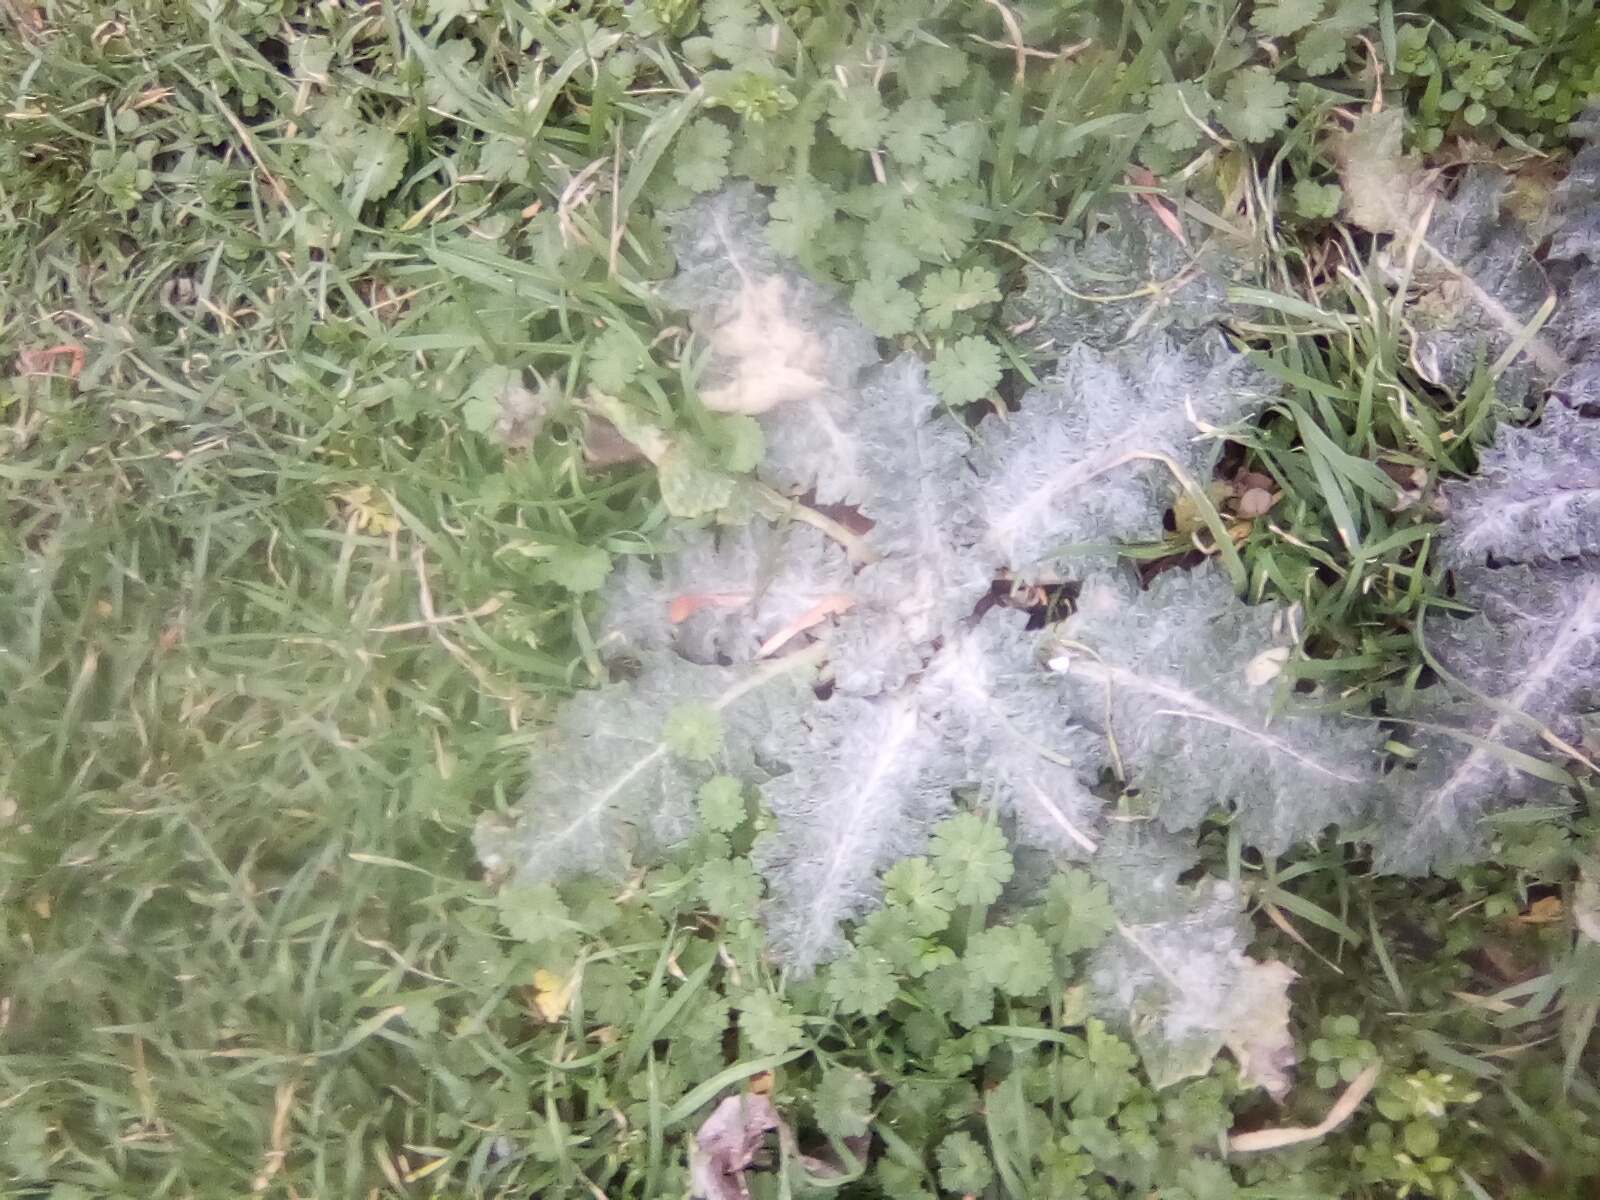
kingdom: Plantae
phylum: Tracheophyta
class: Magnoliopsida
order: Asterales
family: Asteraceae
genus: Onopordum
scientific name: Onopordum acanthium
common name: Scotch thistle
